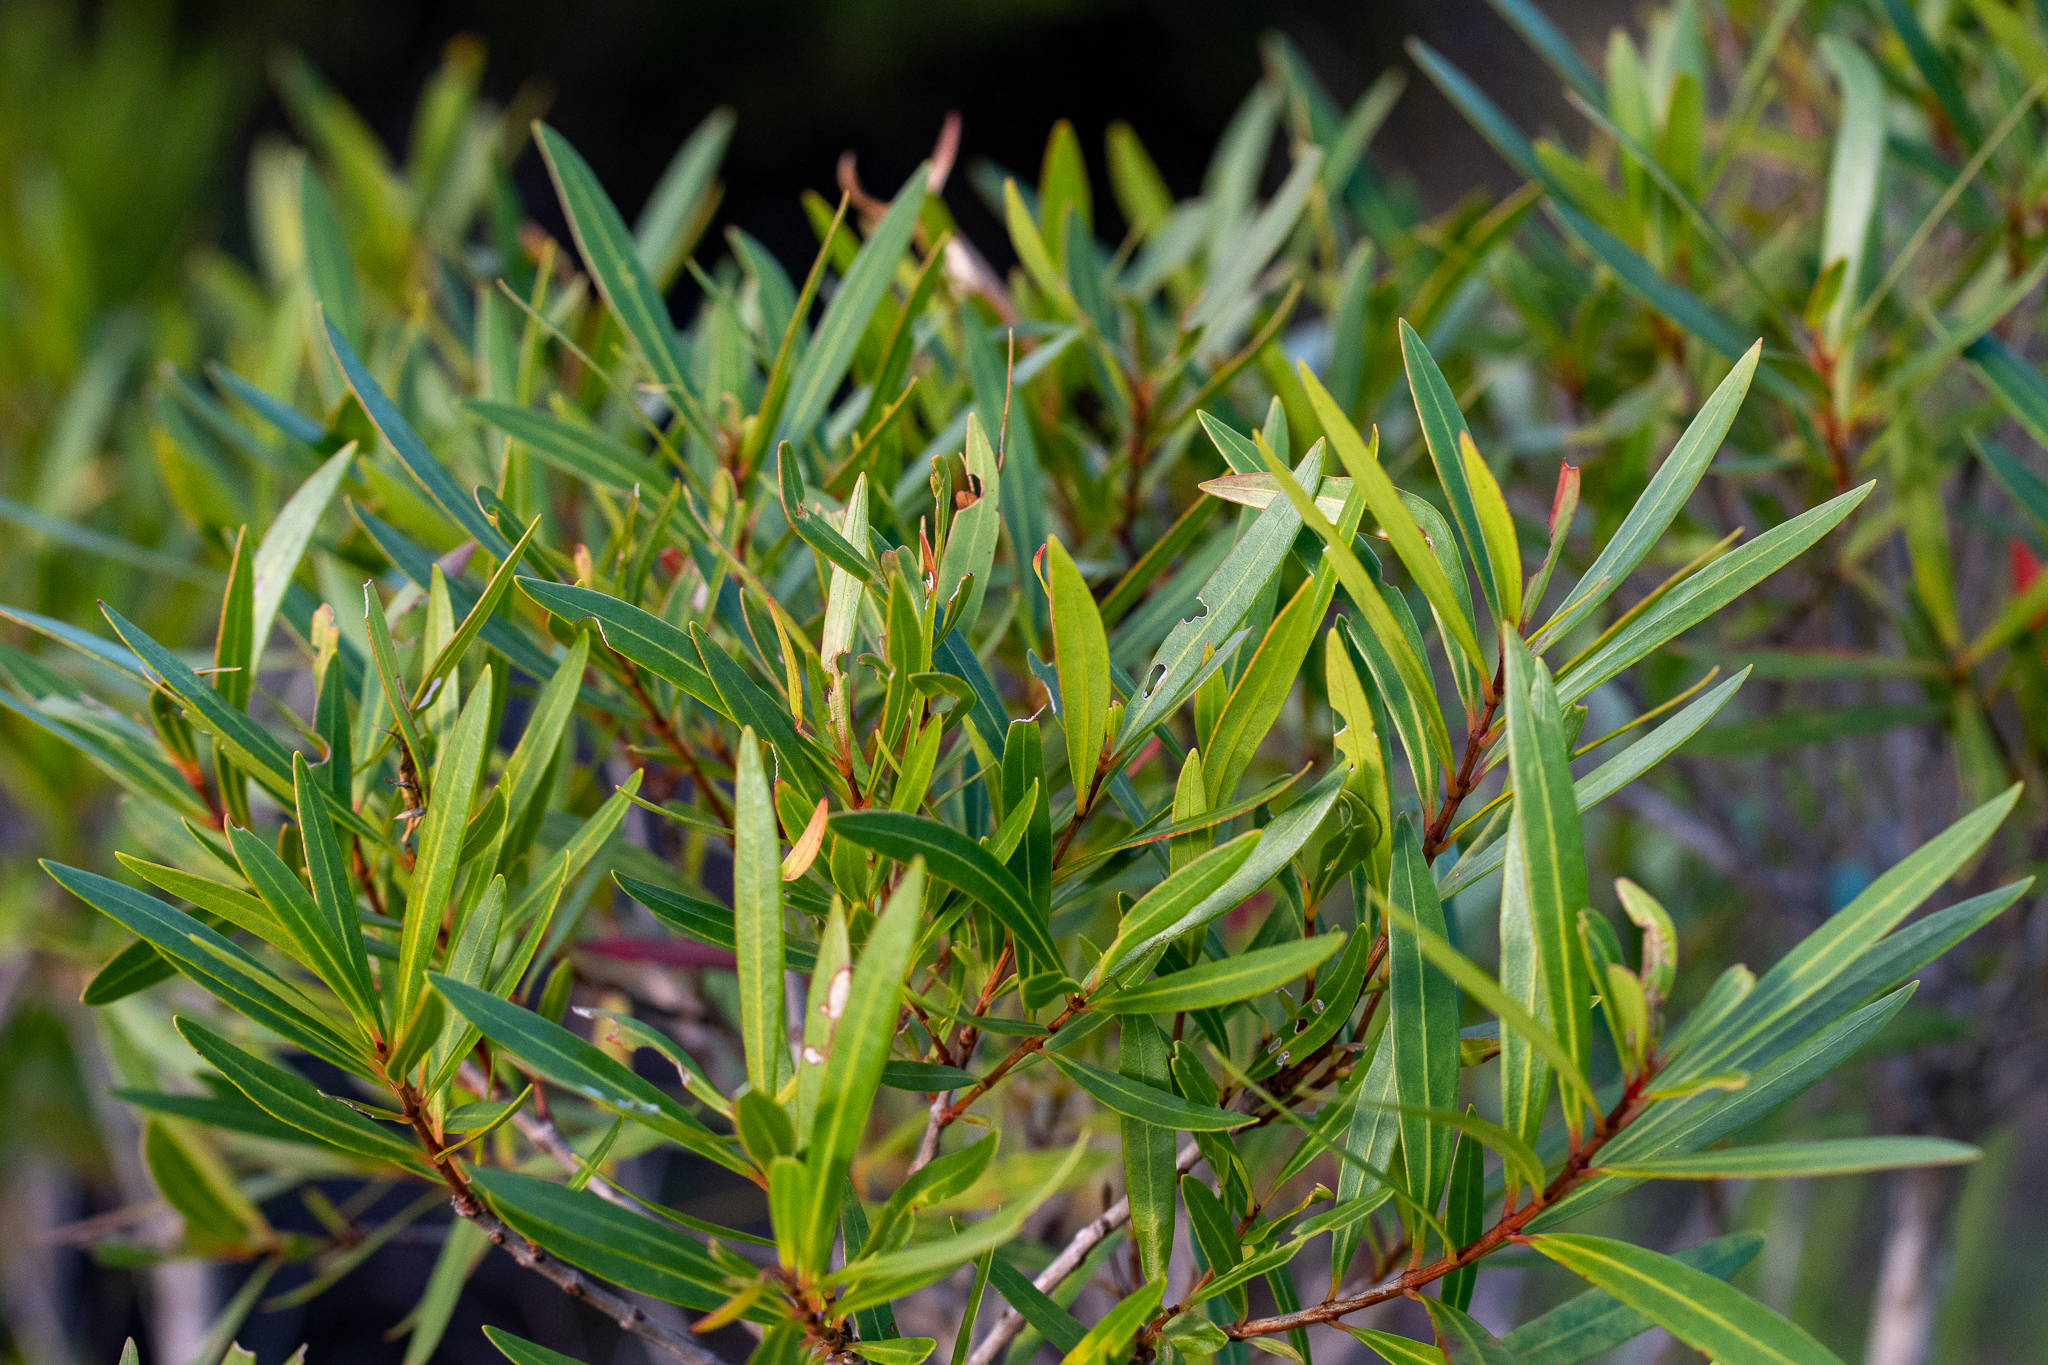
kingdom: Plantae
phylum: Tracheophyta
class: Magnoliopsida
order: Myrtales
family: Myrtaceae
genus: Callistemon
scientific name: Callistemon lanceolatus
